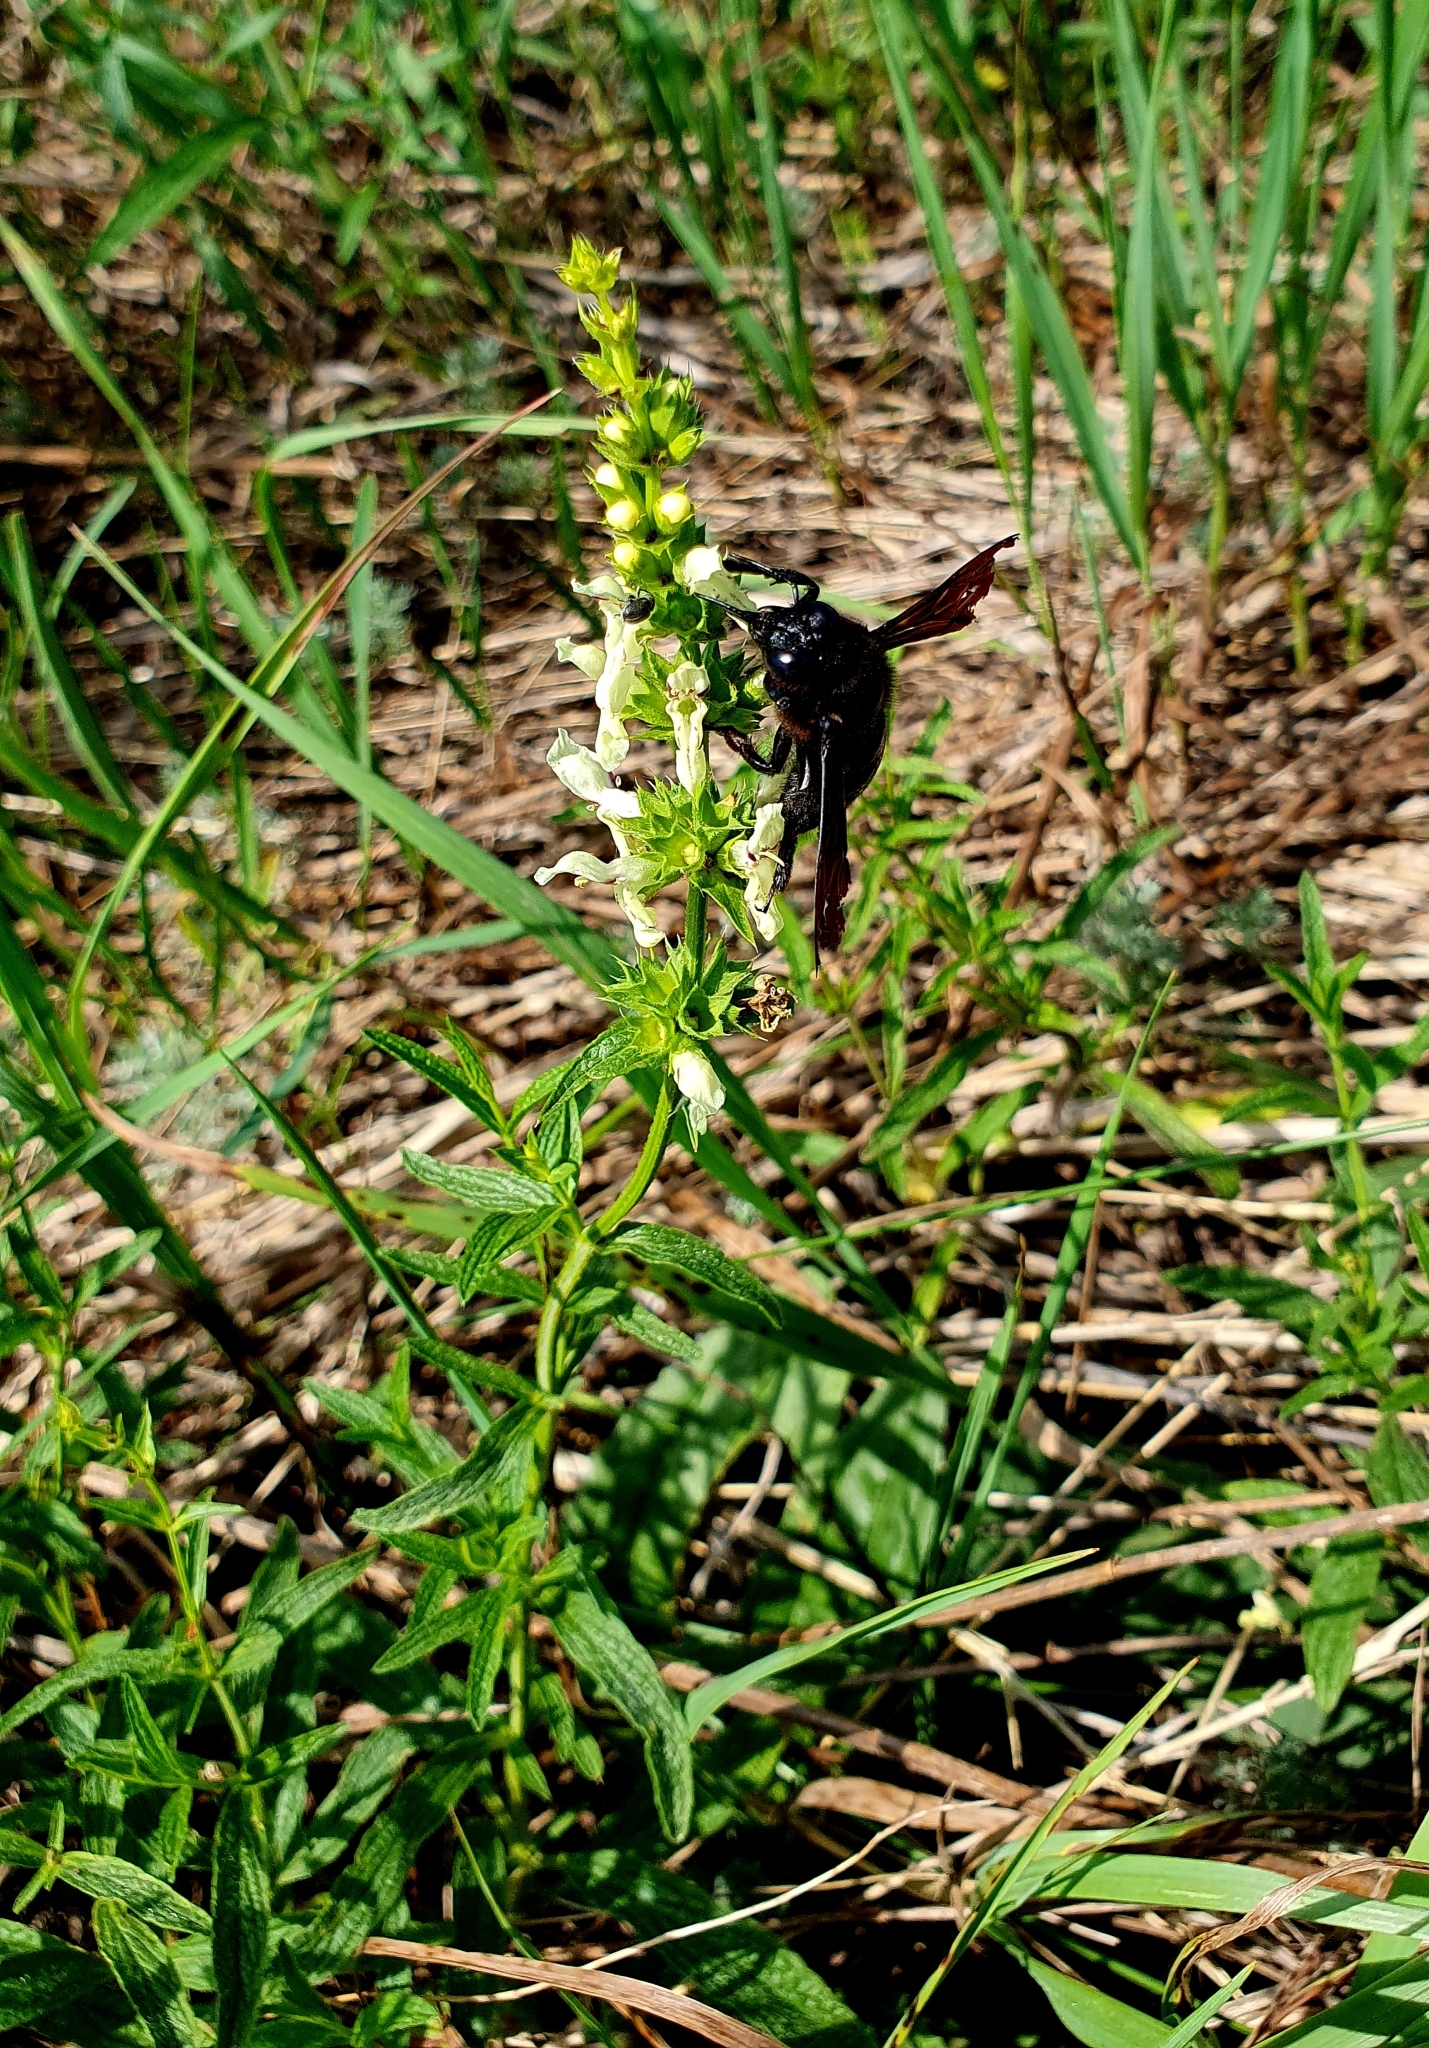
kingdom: Plantae
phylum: Tracheophyta
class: Magnoliopsida
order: Lamiales
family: Lamiaceae
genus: Stachys
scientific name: Stachys recta
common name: Perennial yellow-woundwort
